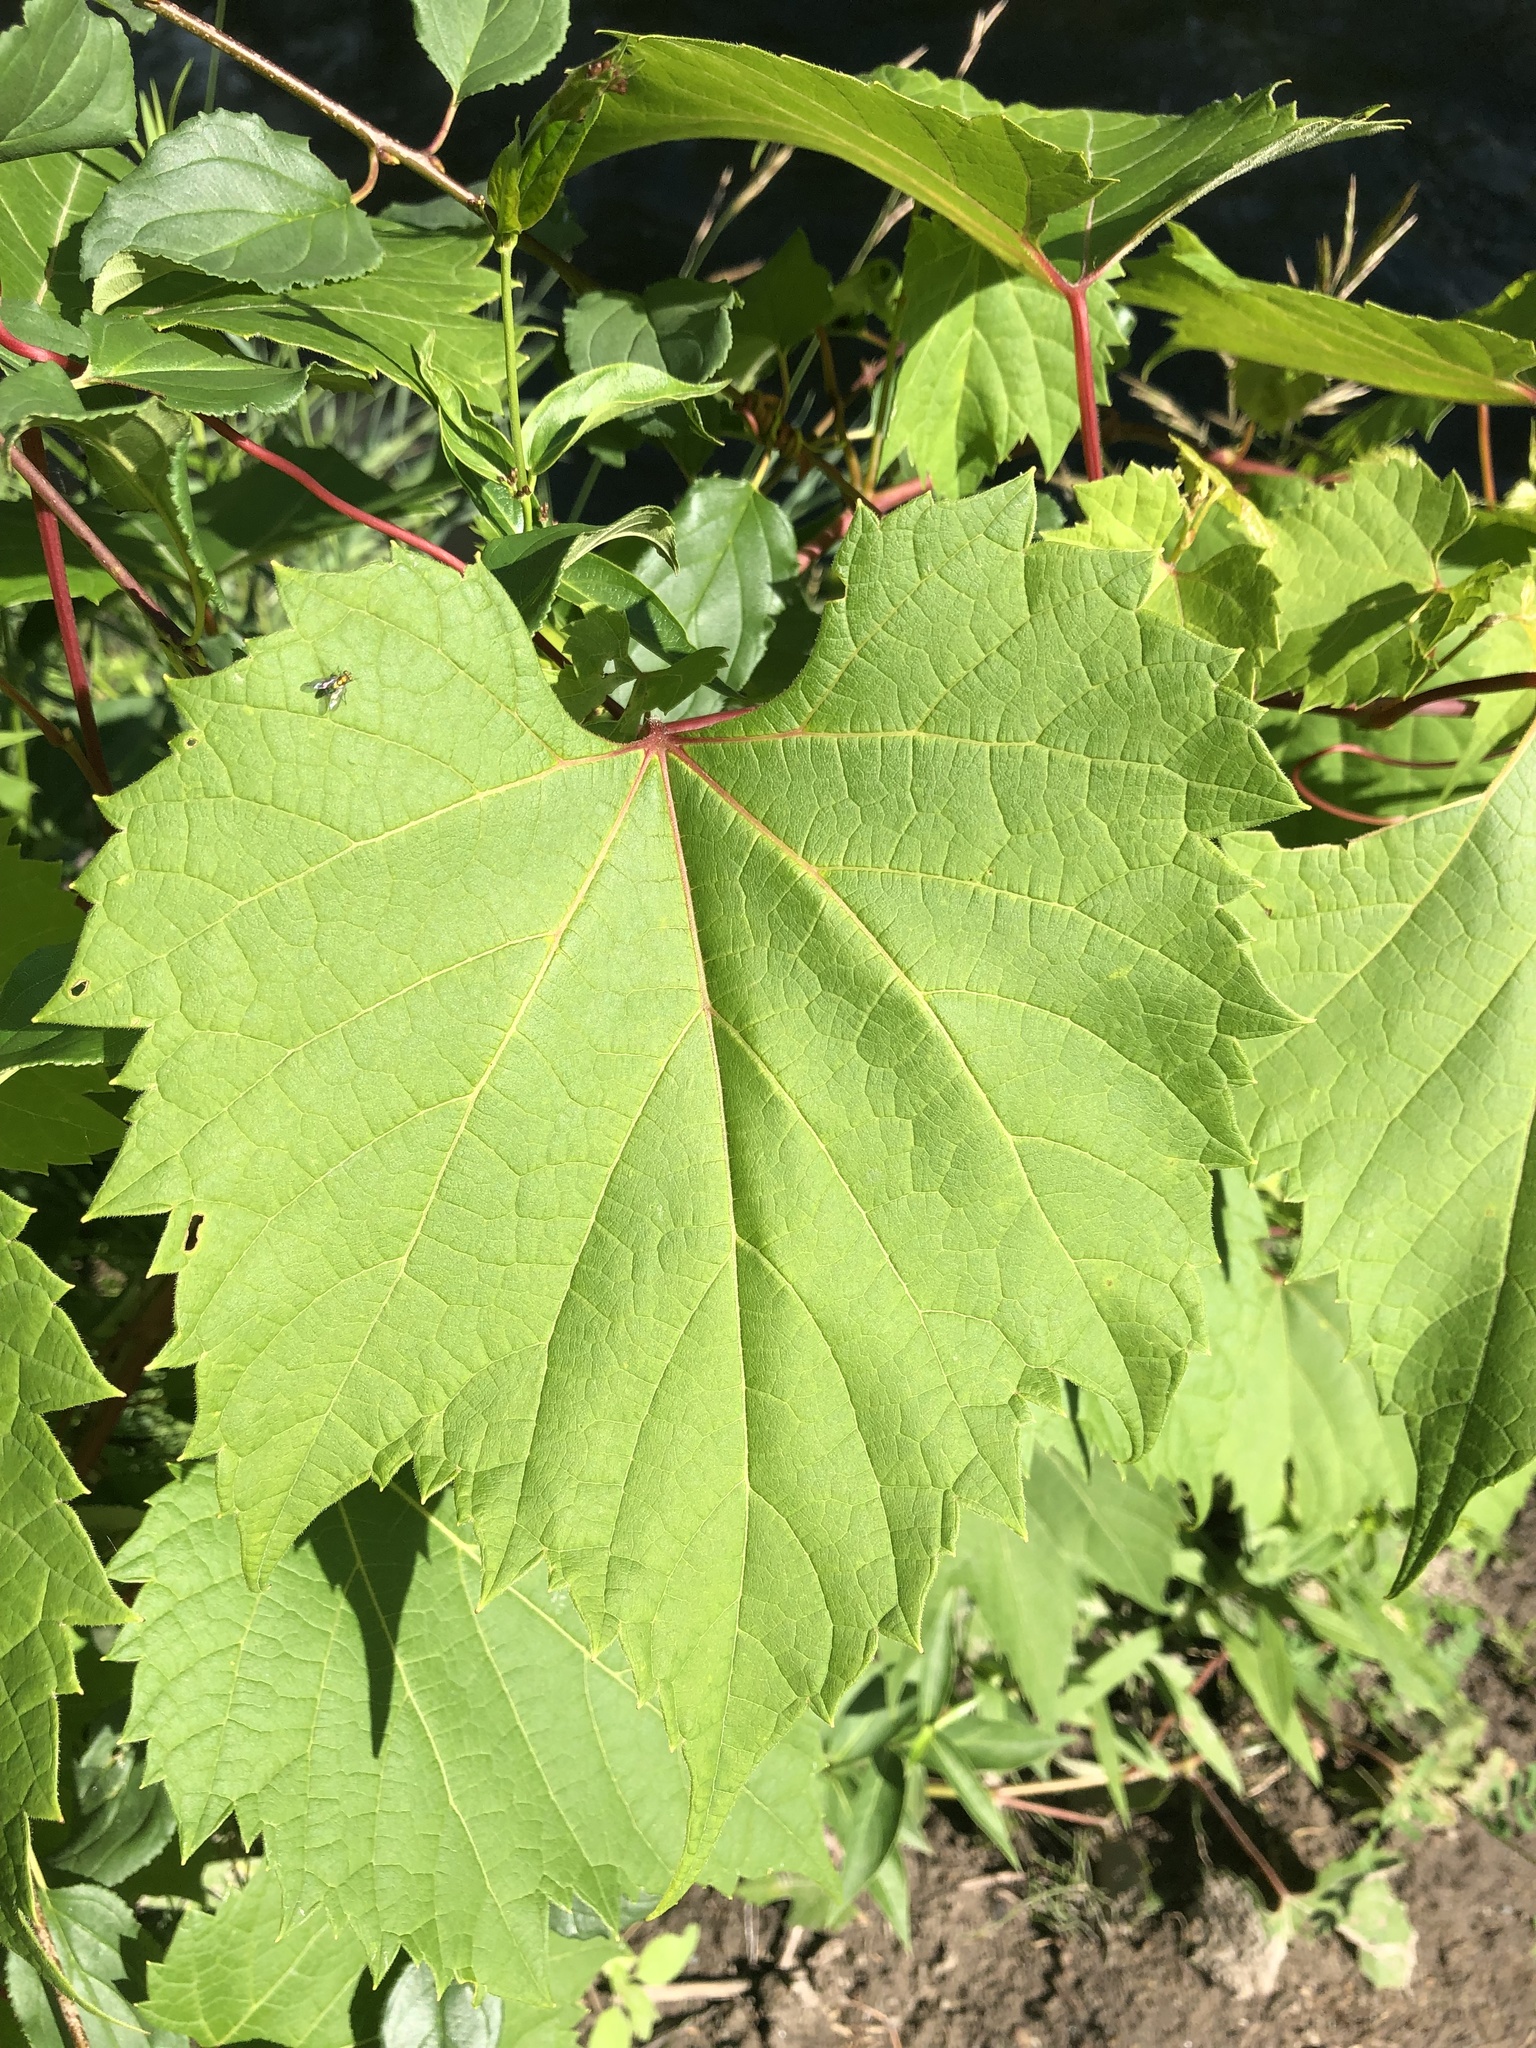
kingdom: Plantae
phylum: Tracheophyta
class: Magnoliopsida
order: Vitales
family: Vitaceae
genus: Vitis
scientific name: Vitis riparia
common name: Frost grape
